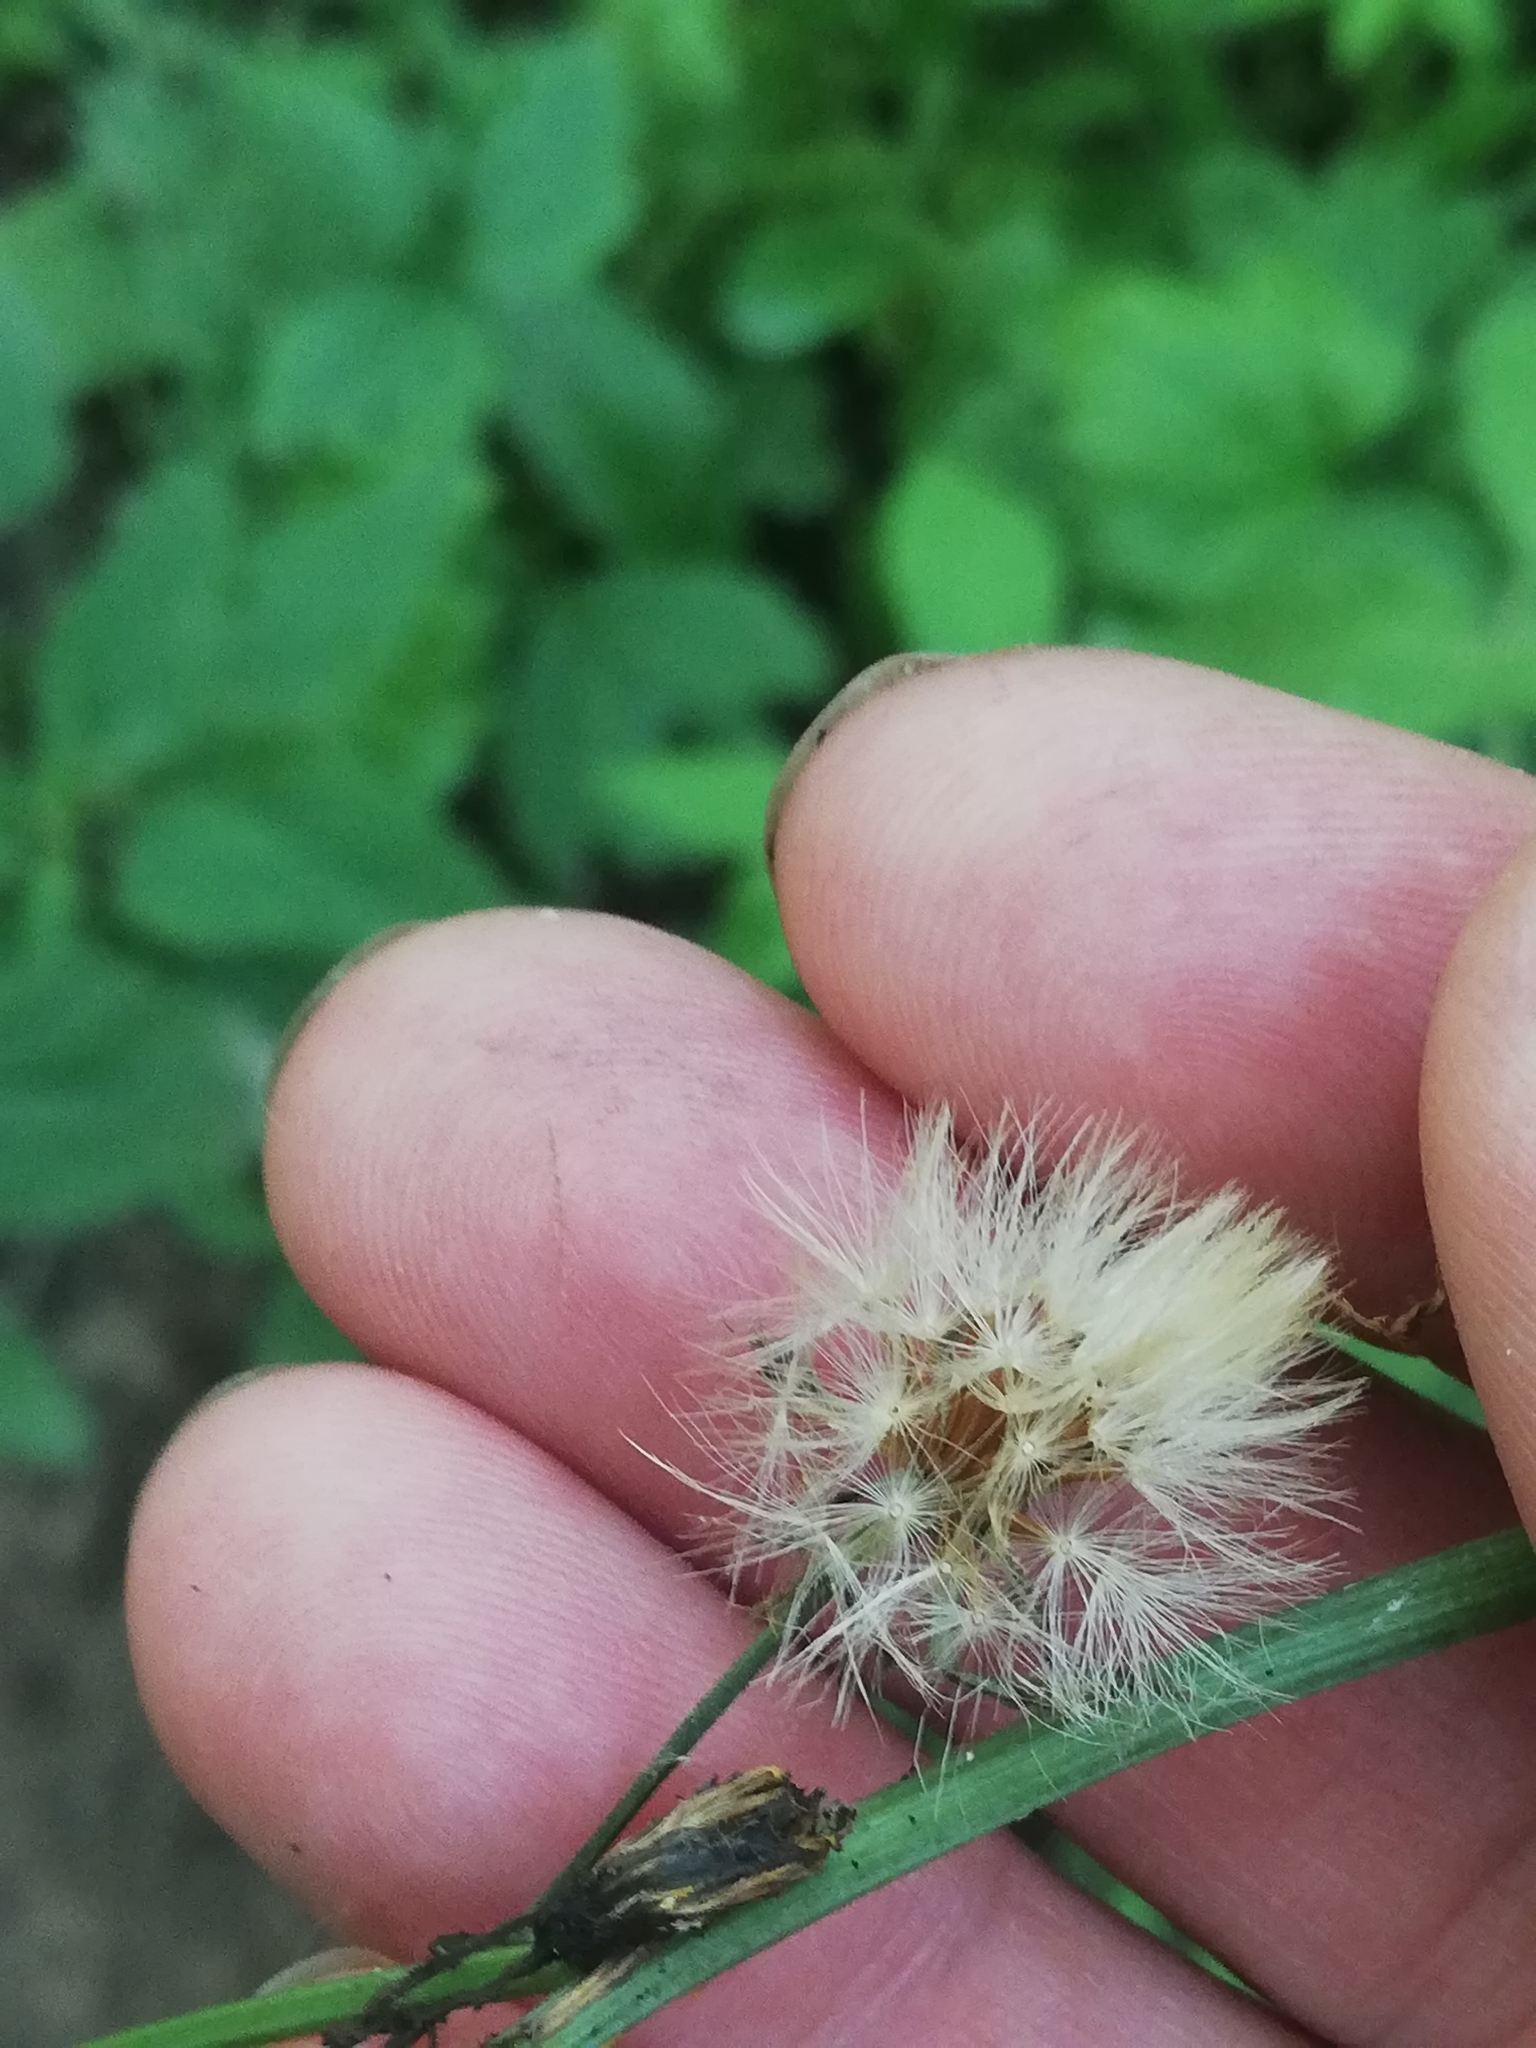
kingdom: Plantae
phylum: Tracheophyta
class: Magnoliopsida
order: Asterales
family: Asteraceae
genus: Crepis
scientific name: Crepis paludosa
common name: Marsh hawk's-beard
